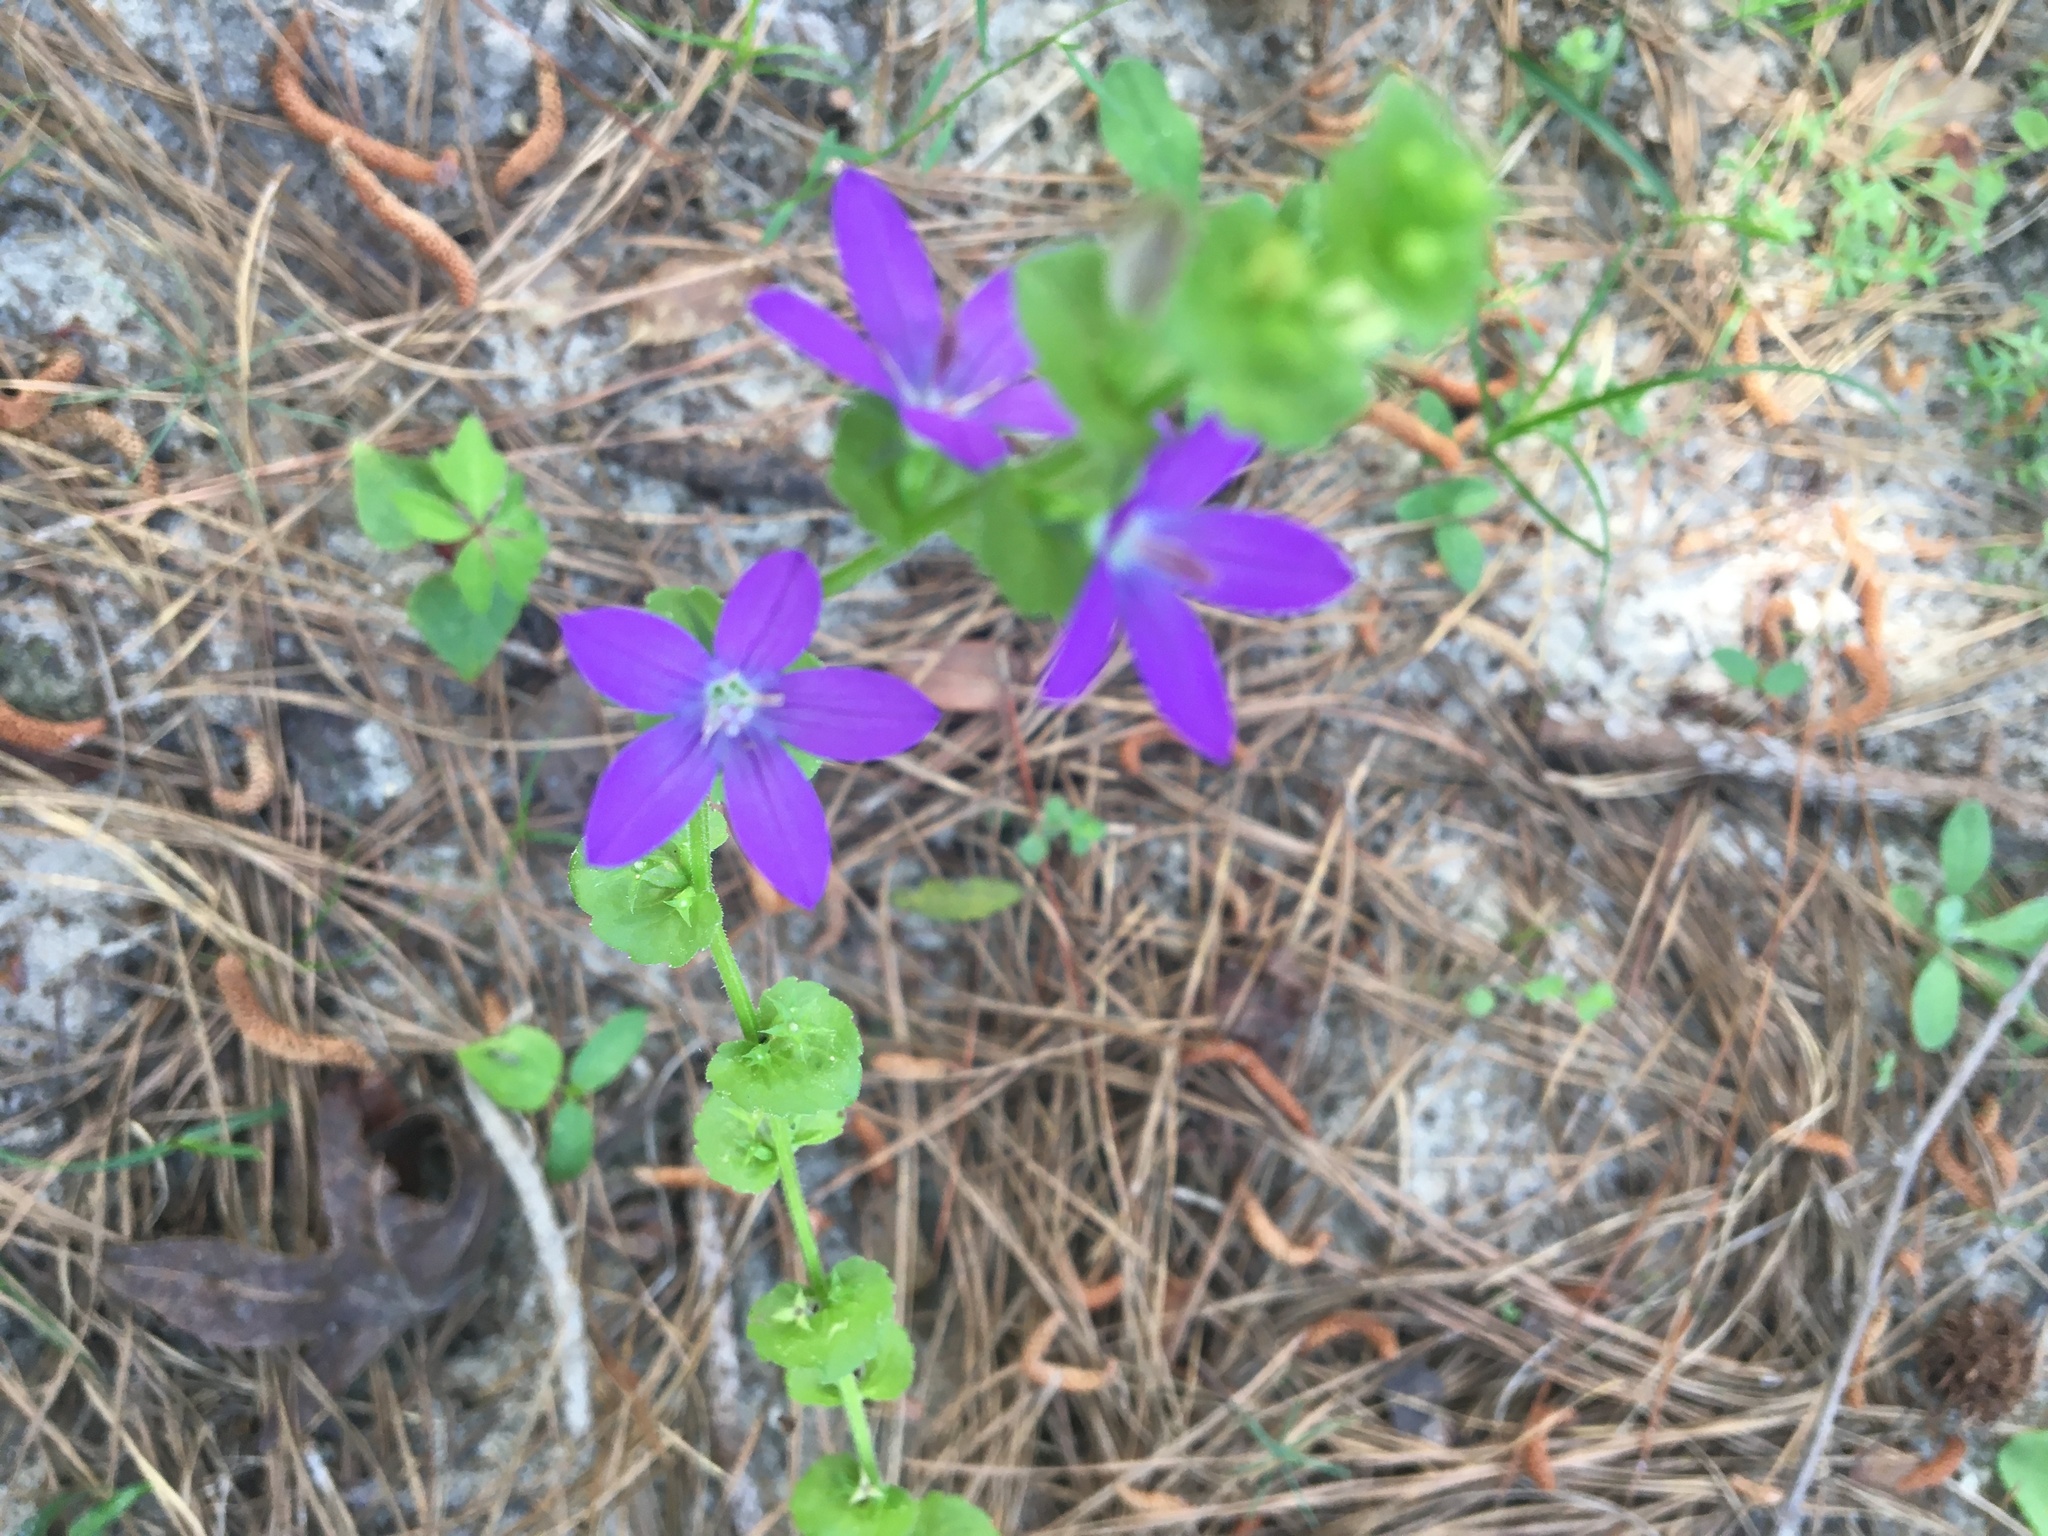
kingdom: Plantae
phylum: Tracheophyta
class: Magnoliopsida
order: Asterales
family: Campanulaceae
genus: Triodanis
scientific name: Triodanis perfoliata
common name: Clasping venus' looking-glass
